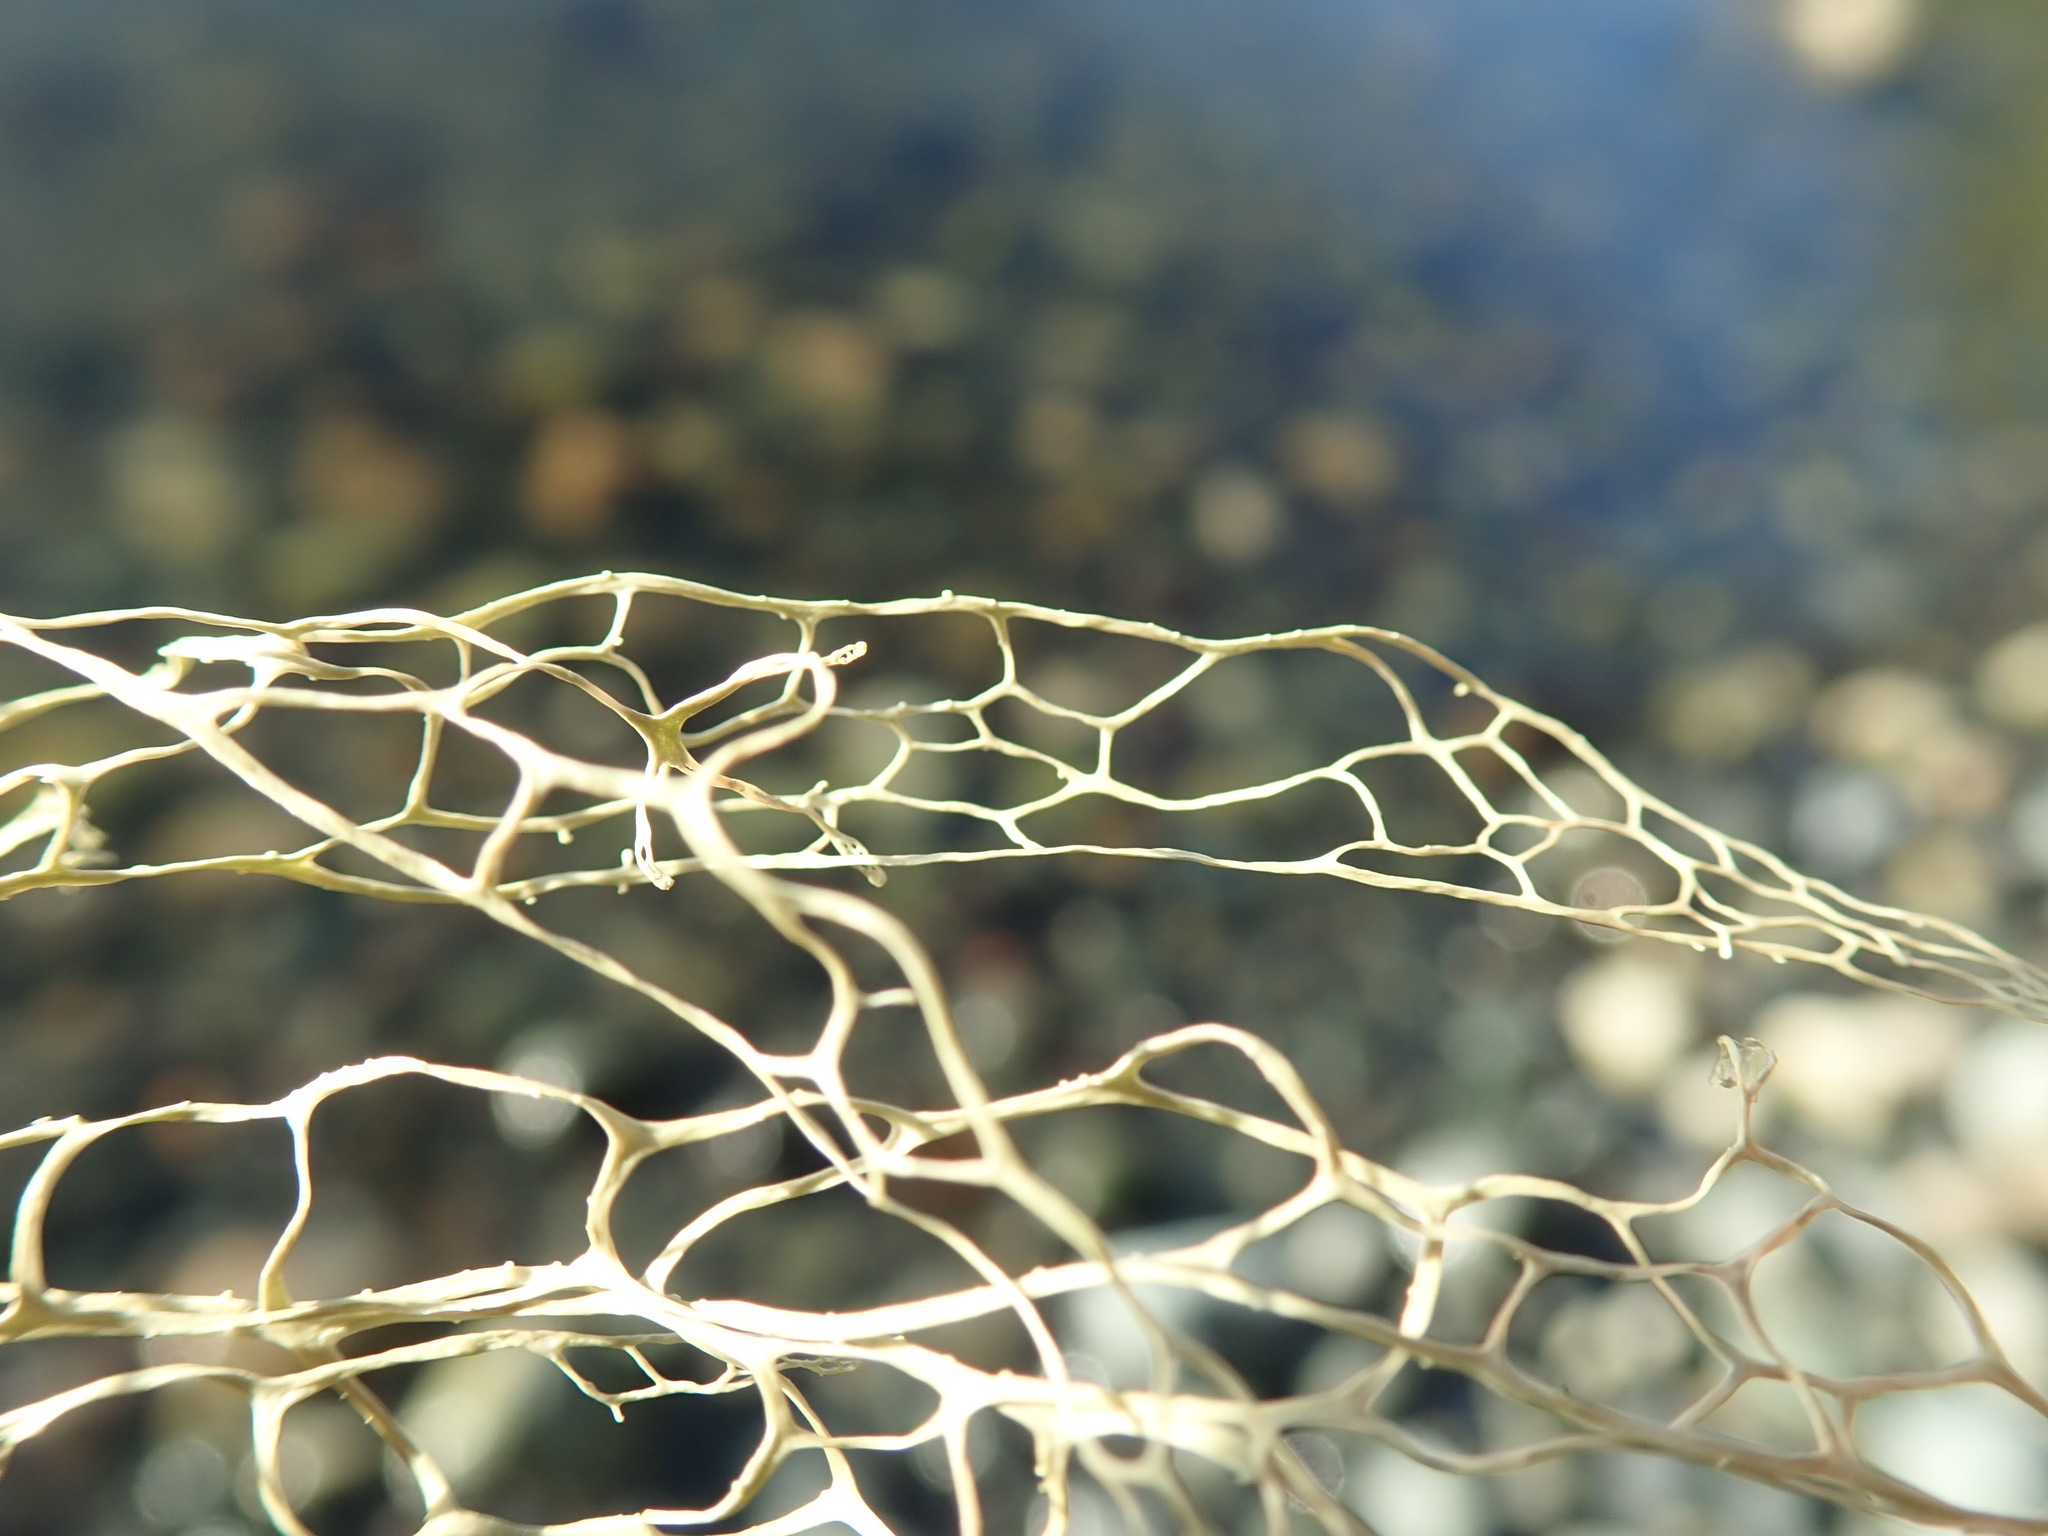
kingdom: Fungi
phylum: Ascomycota
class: Lecanoromycetes
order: Lecanorales
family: Ramalinaceae
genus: Ramalina
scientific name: Ramalina menziesii
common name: Lace lichen
